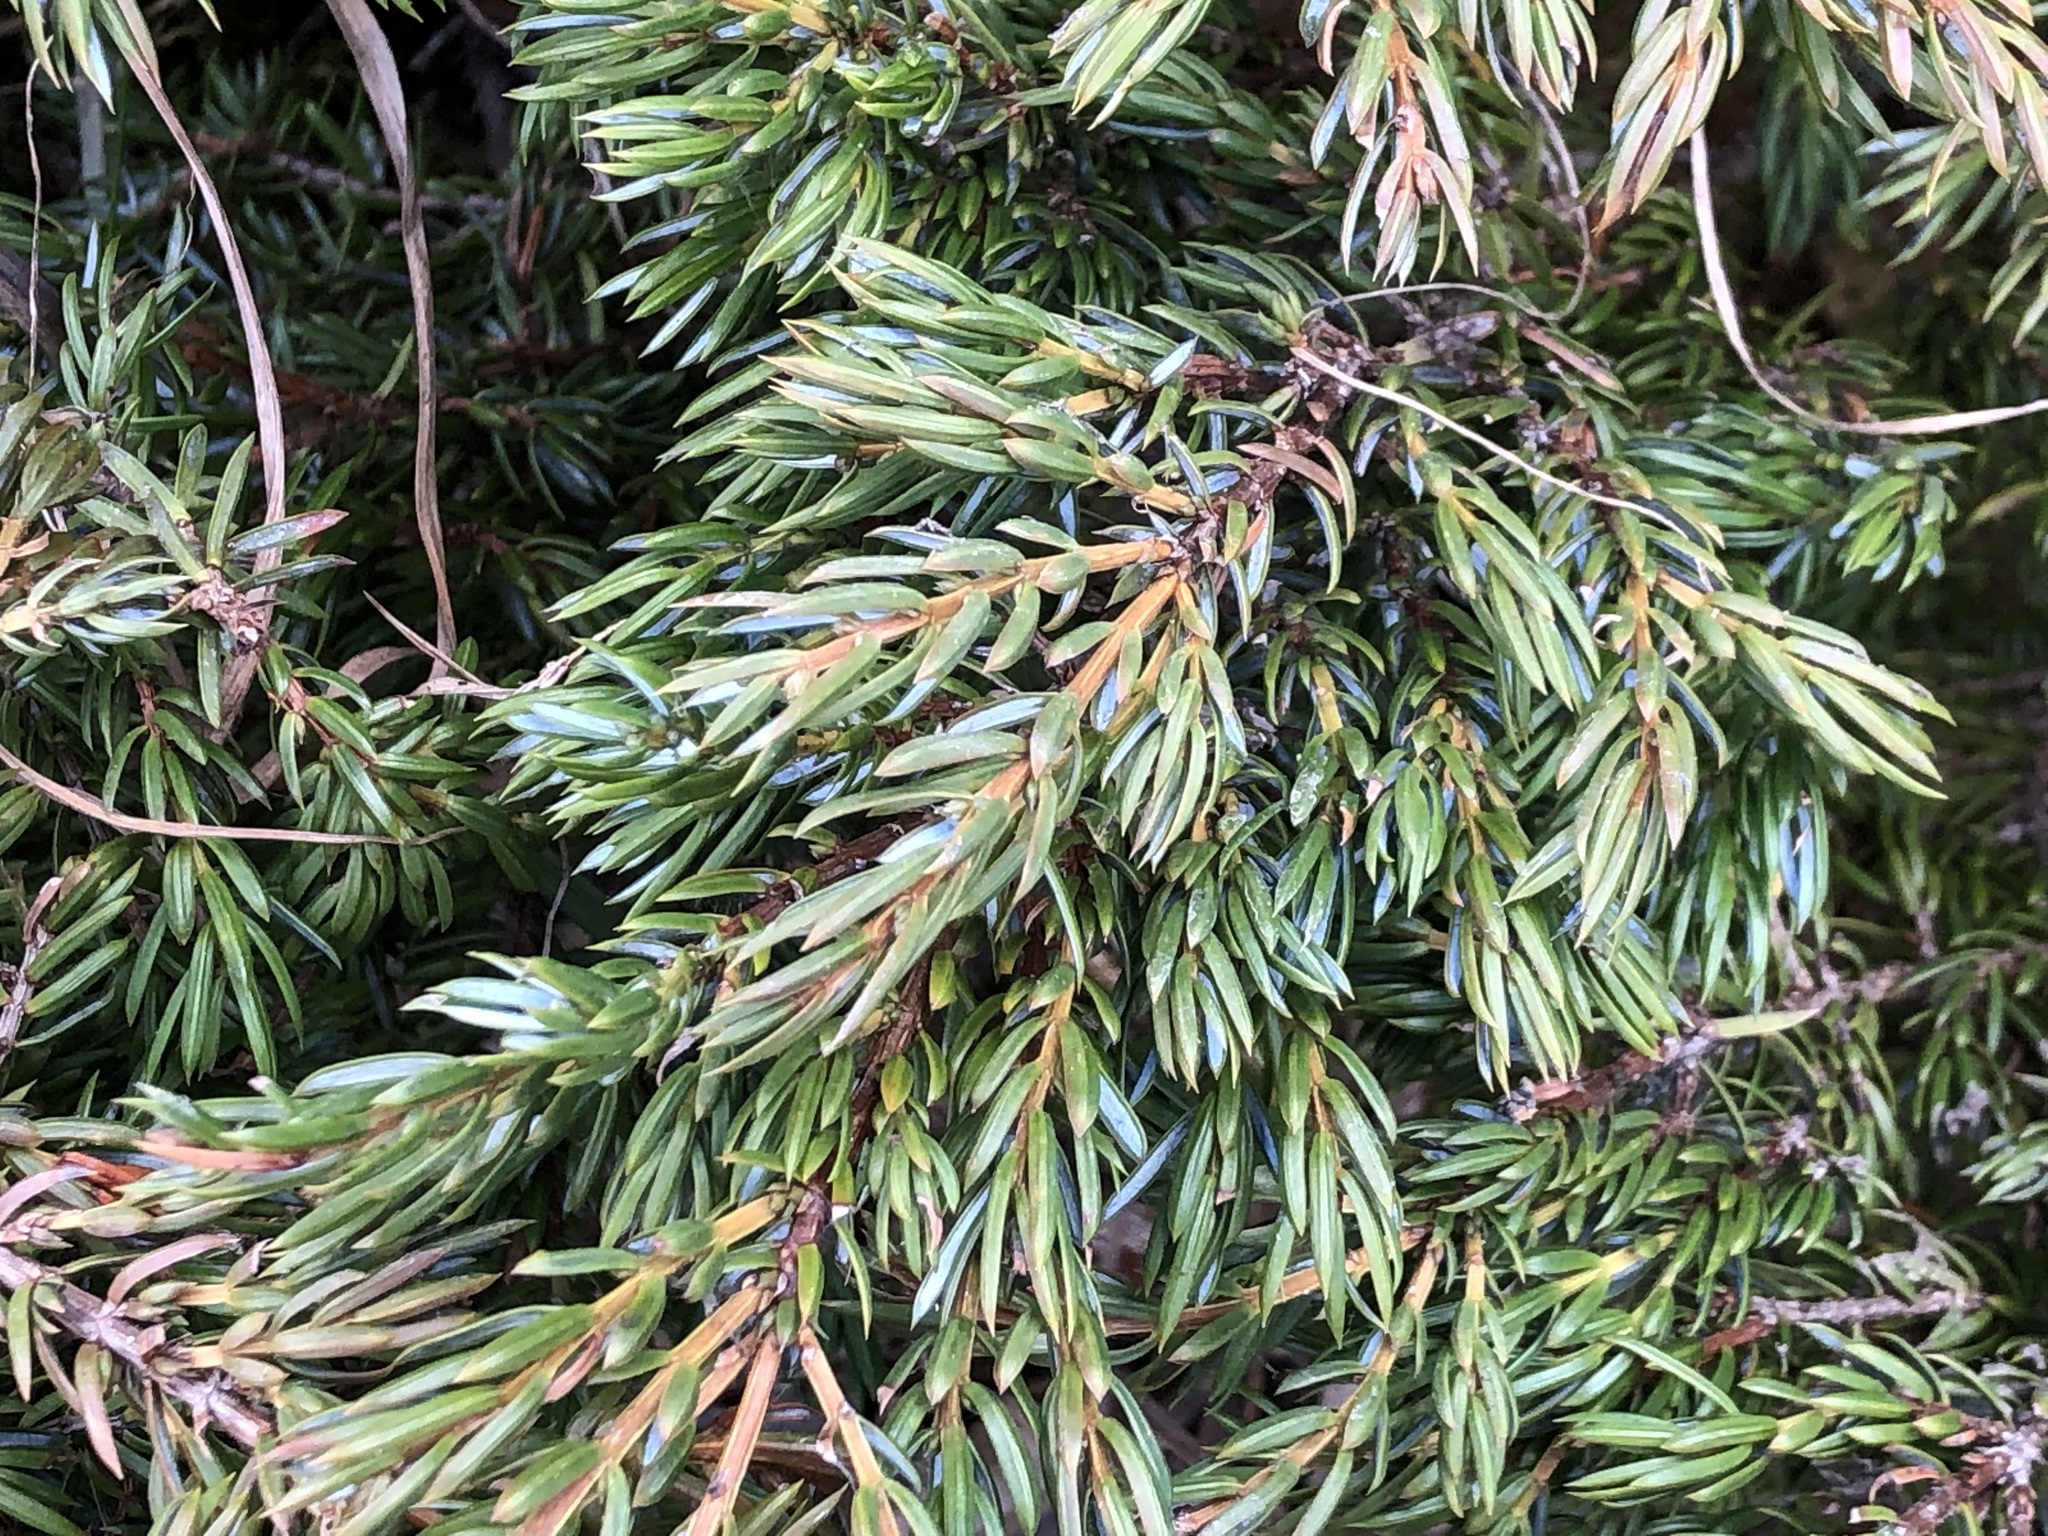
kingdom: Plantae
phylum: Tracheophyta
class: Pinopsida
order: Pinales
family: Cupressaceae
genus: Juniperus
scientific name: Juniperus communis
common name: Common juniper
